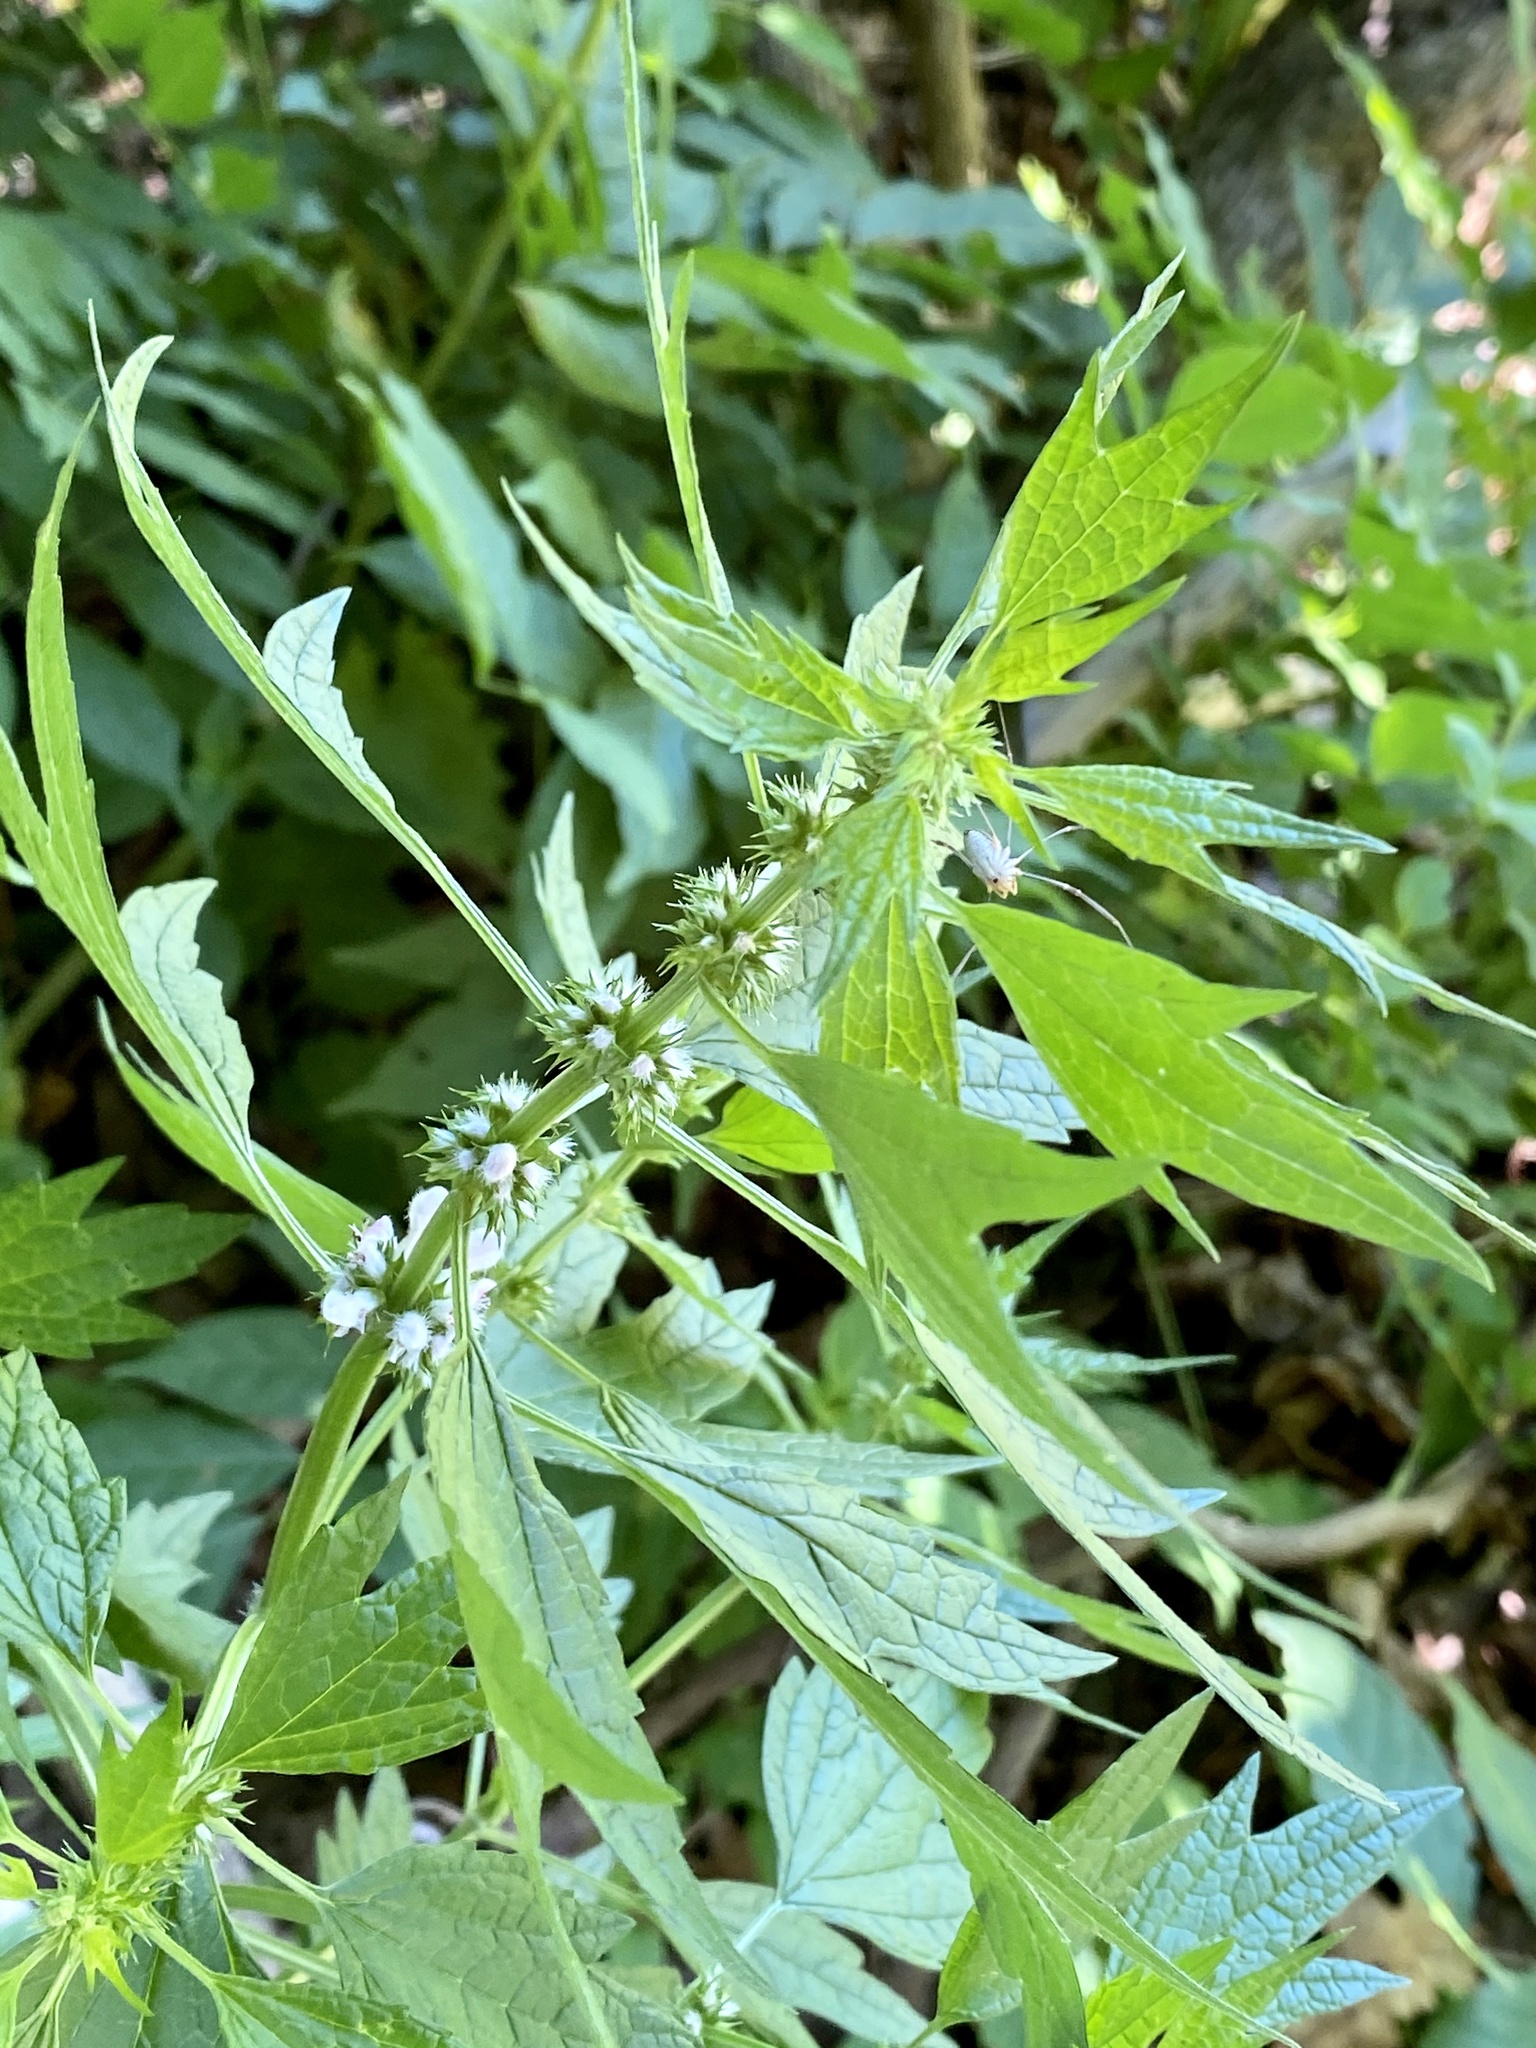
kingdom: Plantae
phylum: Tracheophyta
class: Magnoliopsida
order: Lamiales
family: Lamiaceae
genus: Leonurus
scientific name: Leonurus cardiaca
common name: Motherwort
